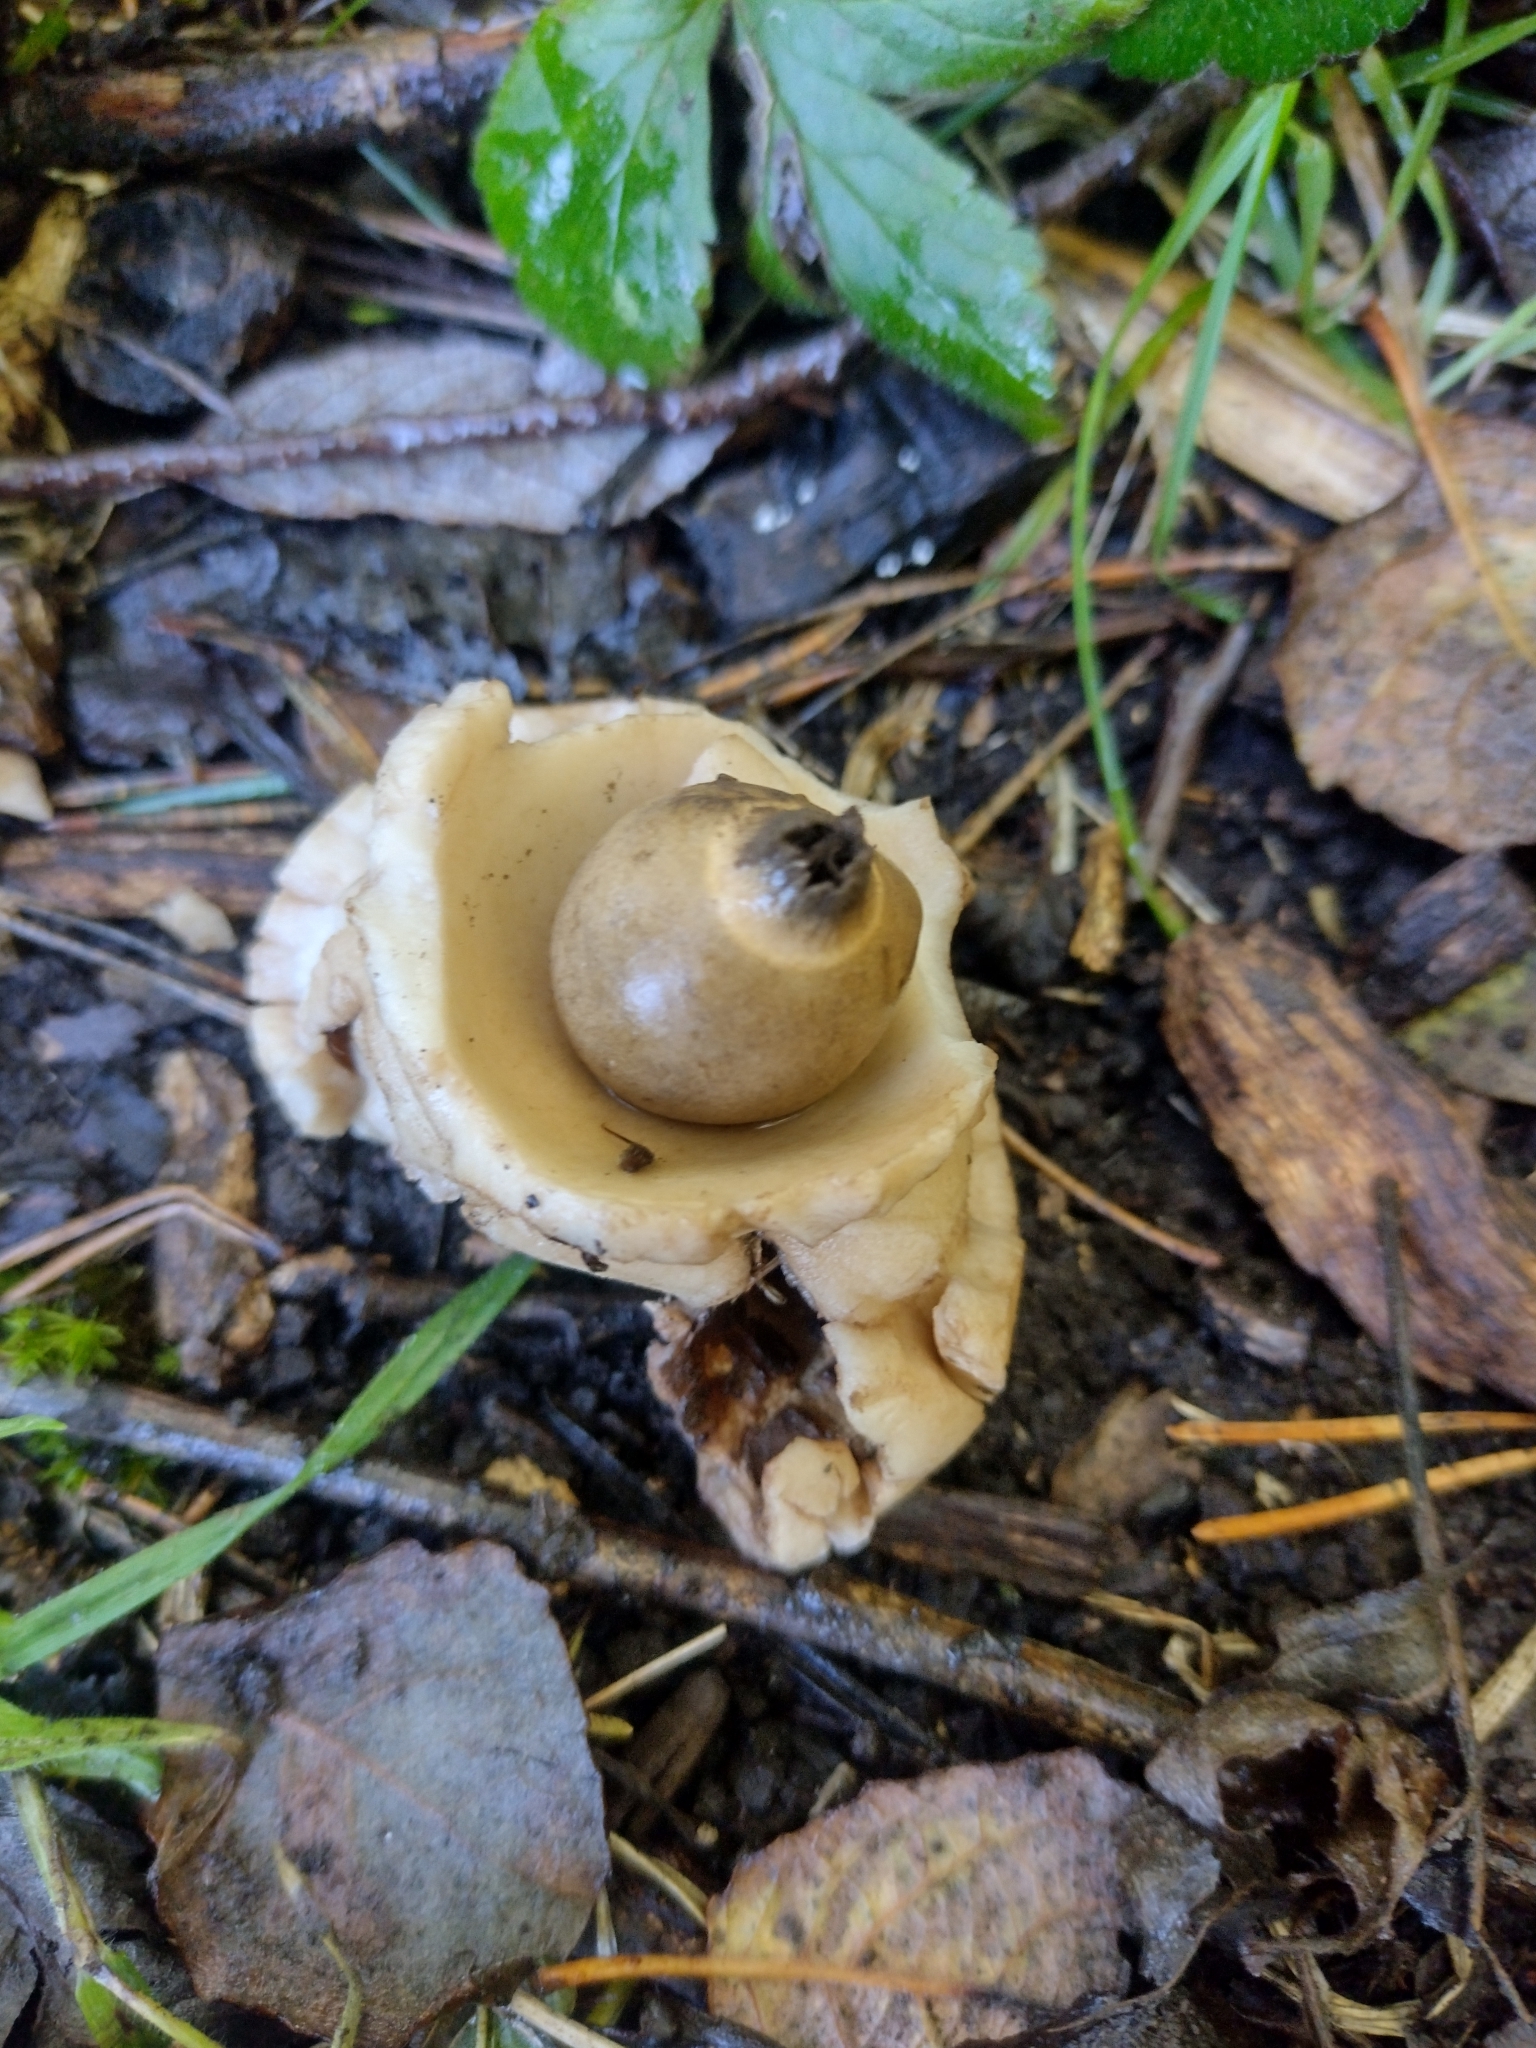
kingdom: Fungi
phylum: Basidiomycota
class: Agaricomycetes
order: Geastrales
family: Geastraceae
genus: Geastrum
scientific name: Geastrum michelianum
